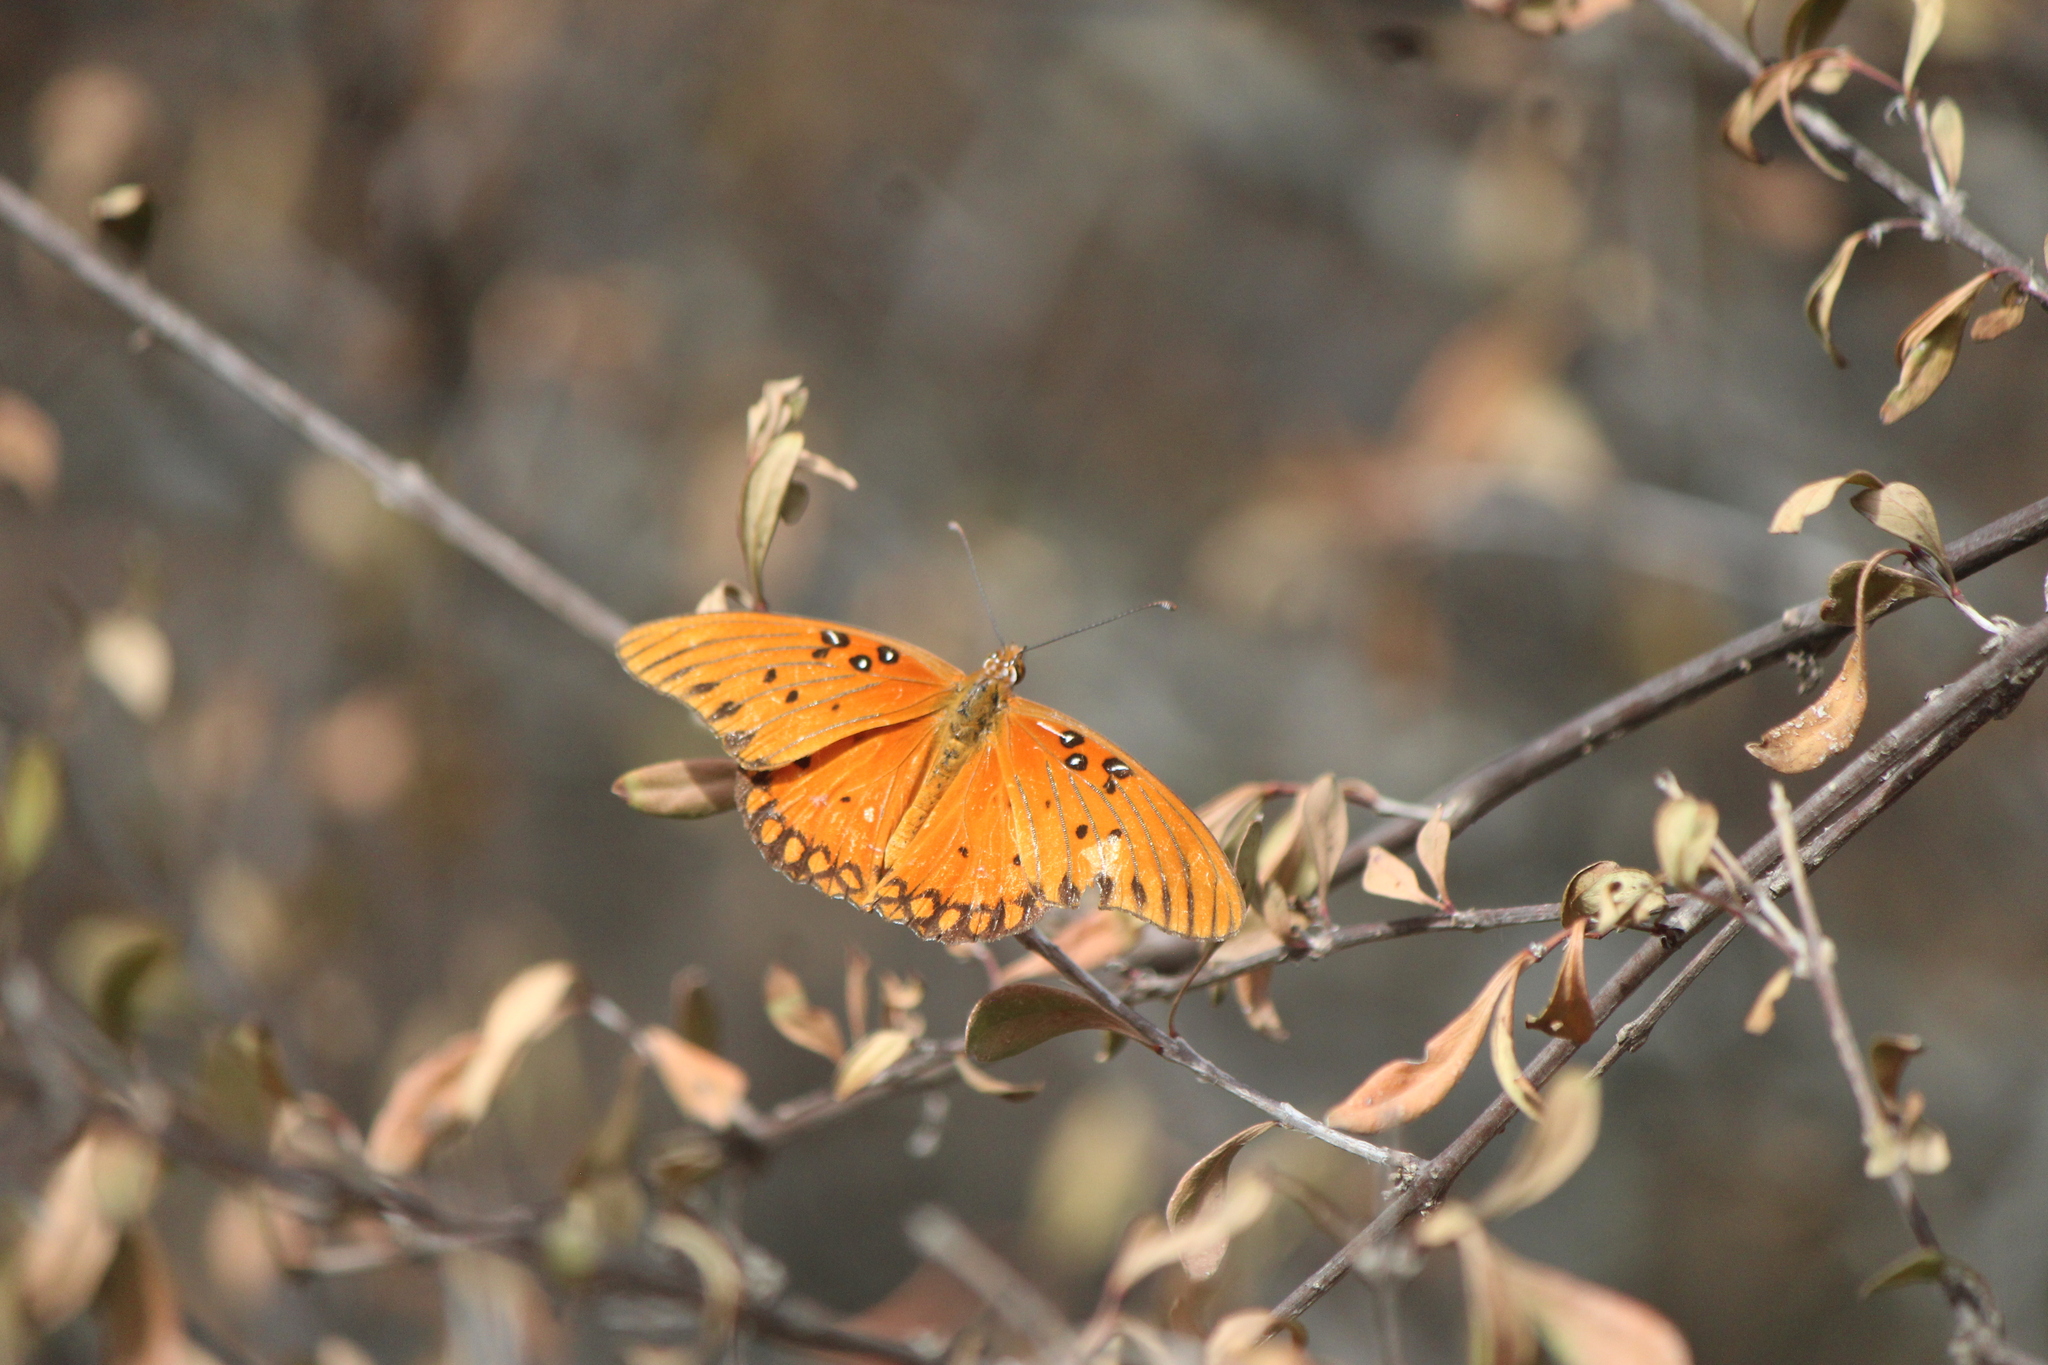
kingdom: Animalia
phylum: Arthropoda
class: Insecta
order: Lepidoptera
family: Nymphalidae
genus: Dione
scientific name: Dione vanillae
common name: Gulf fritillary
